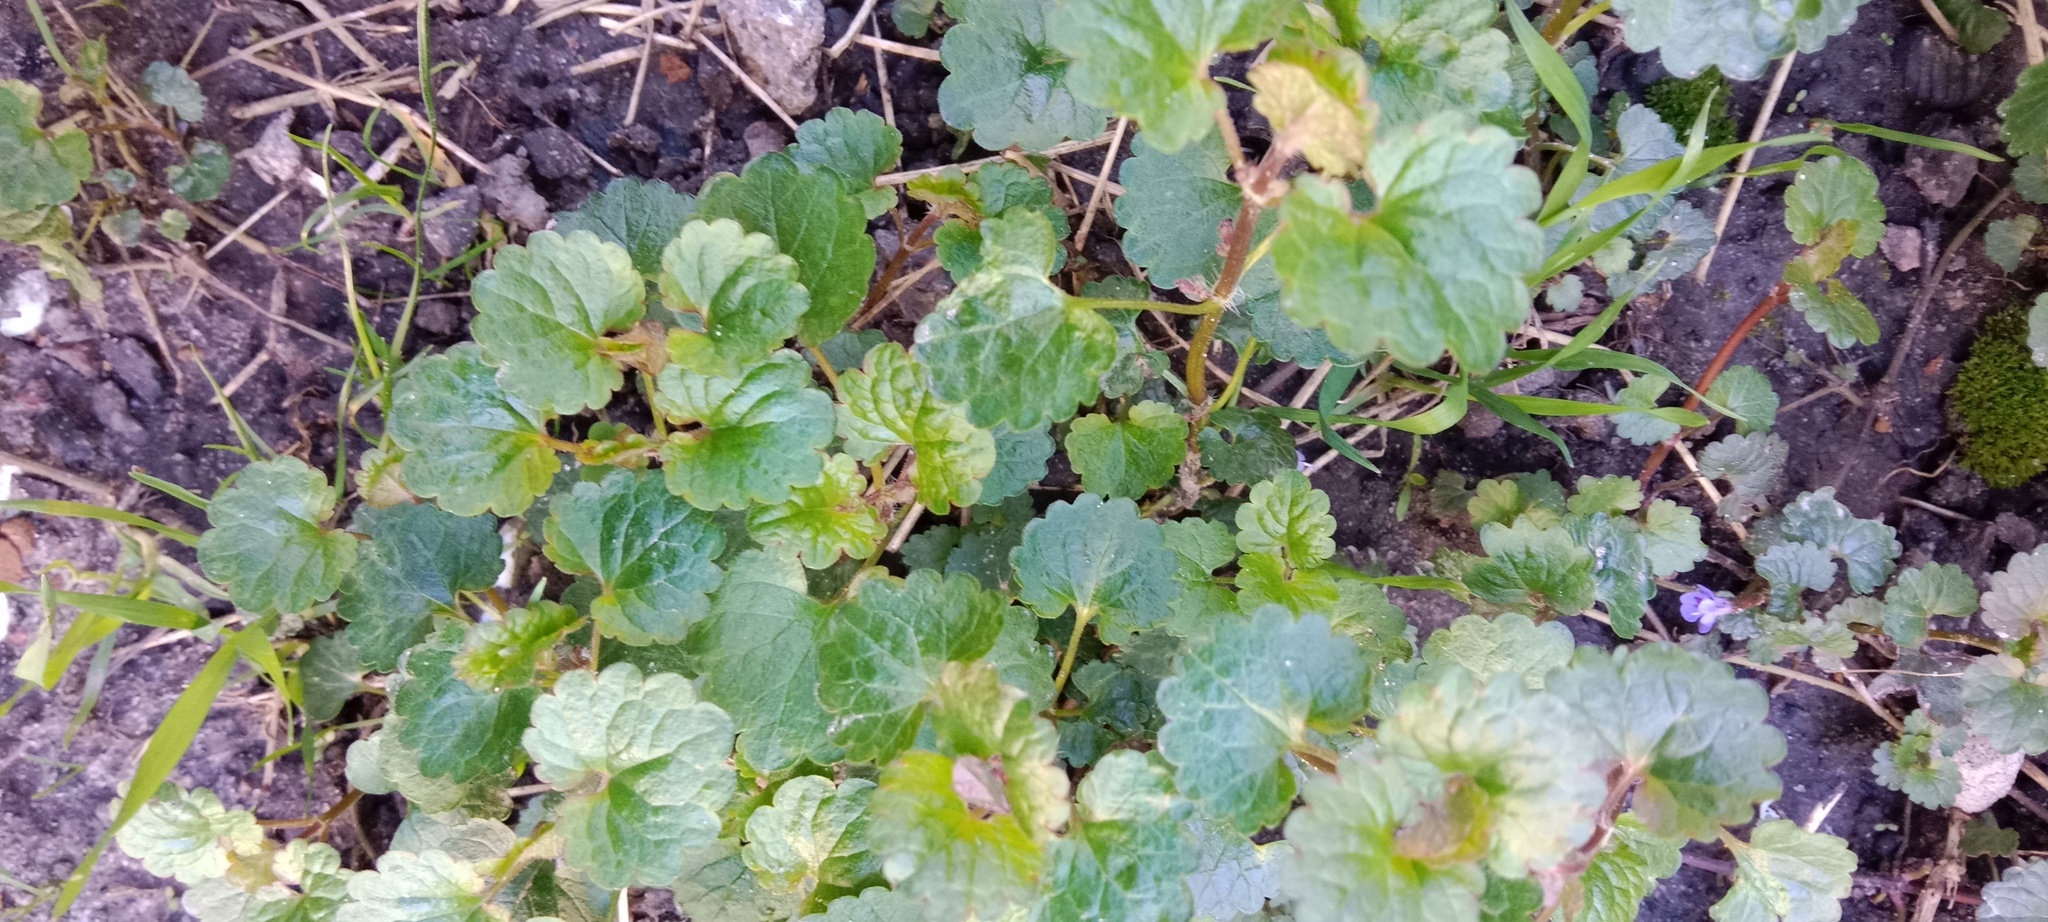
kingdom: Plantae
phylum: Tracheophyta
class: Magnoliopsida
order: Lamiales
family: Lamiaceae
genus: Glechoma
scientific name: Glechoma hederacea
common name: Ground ivy
